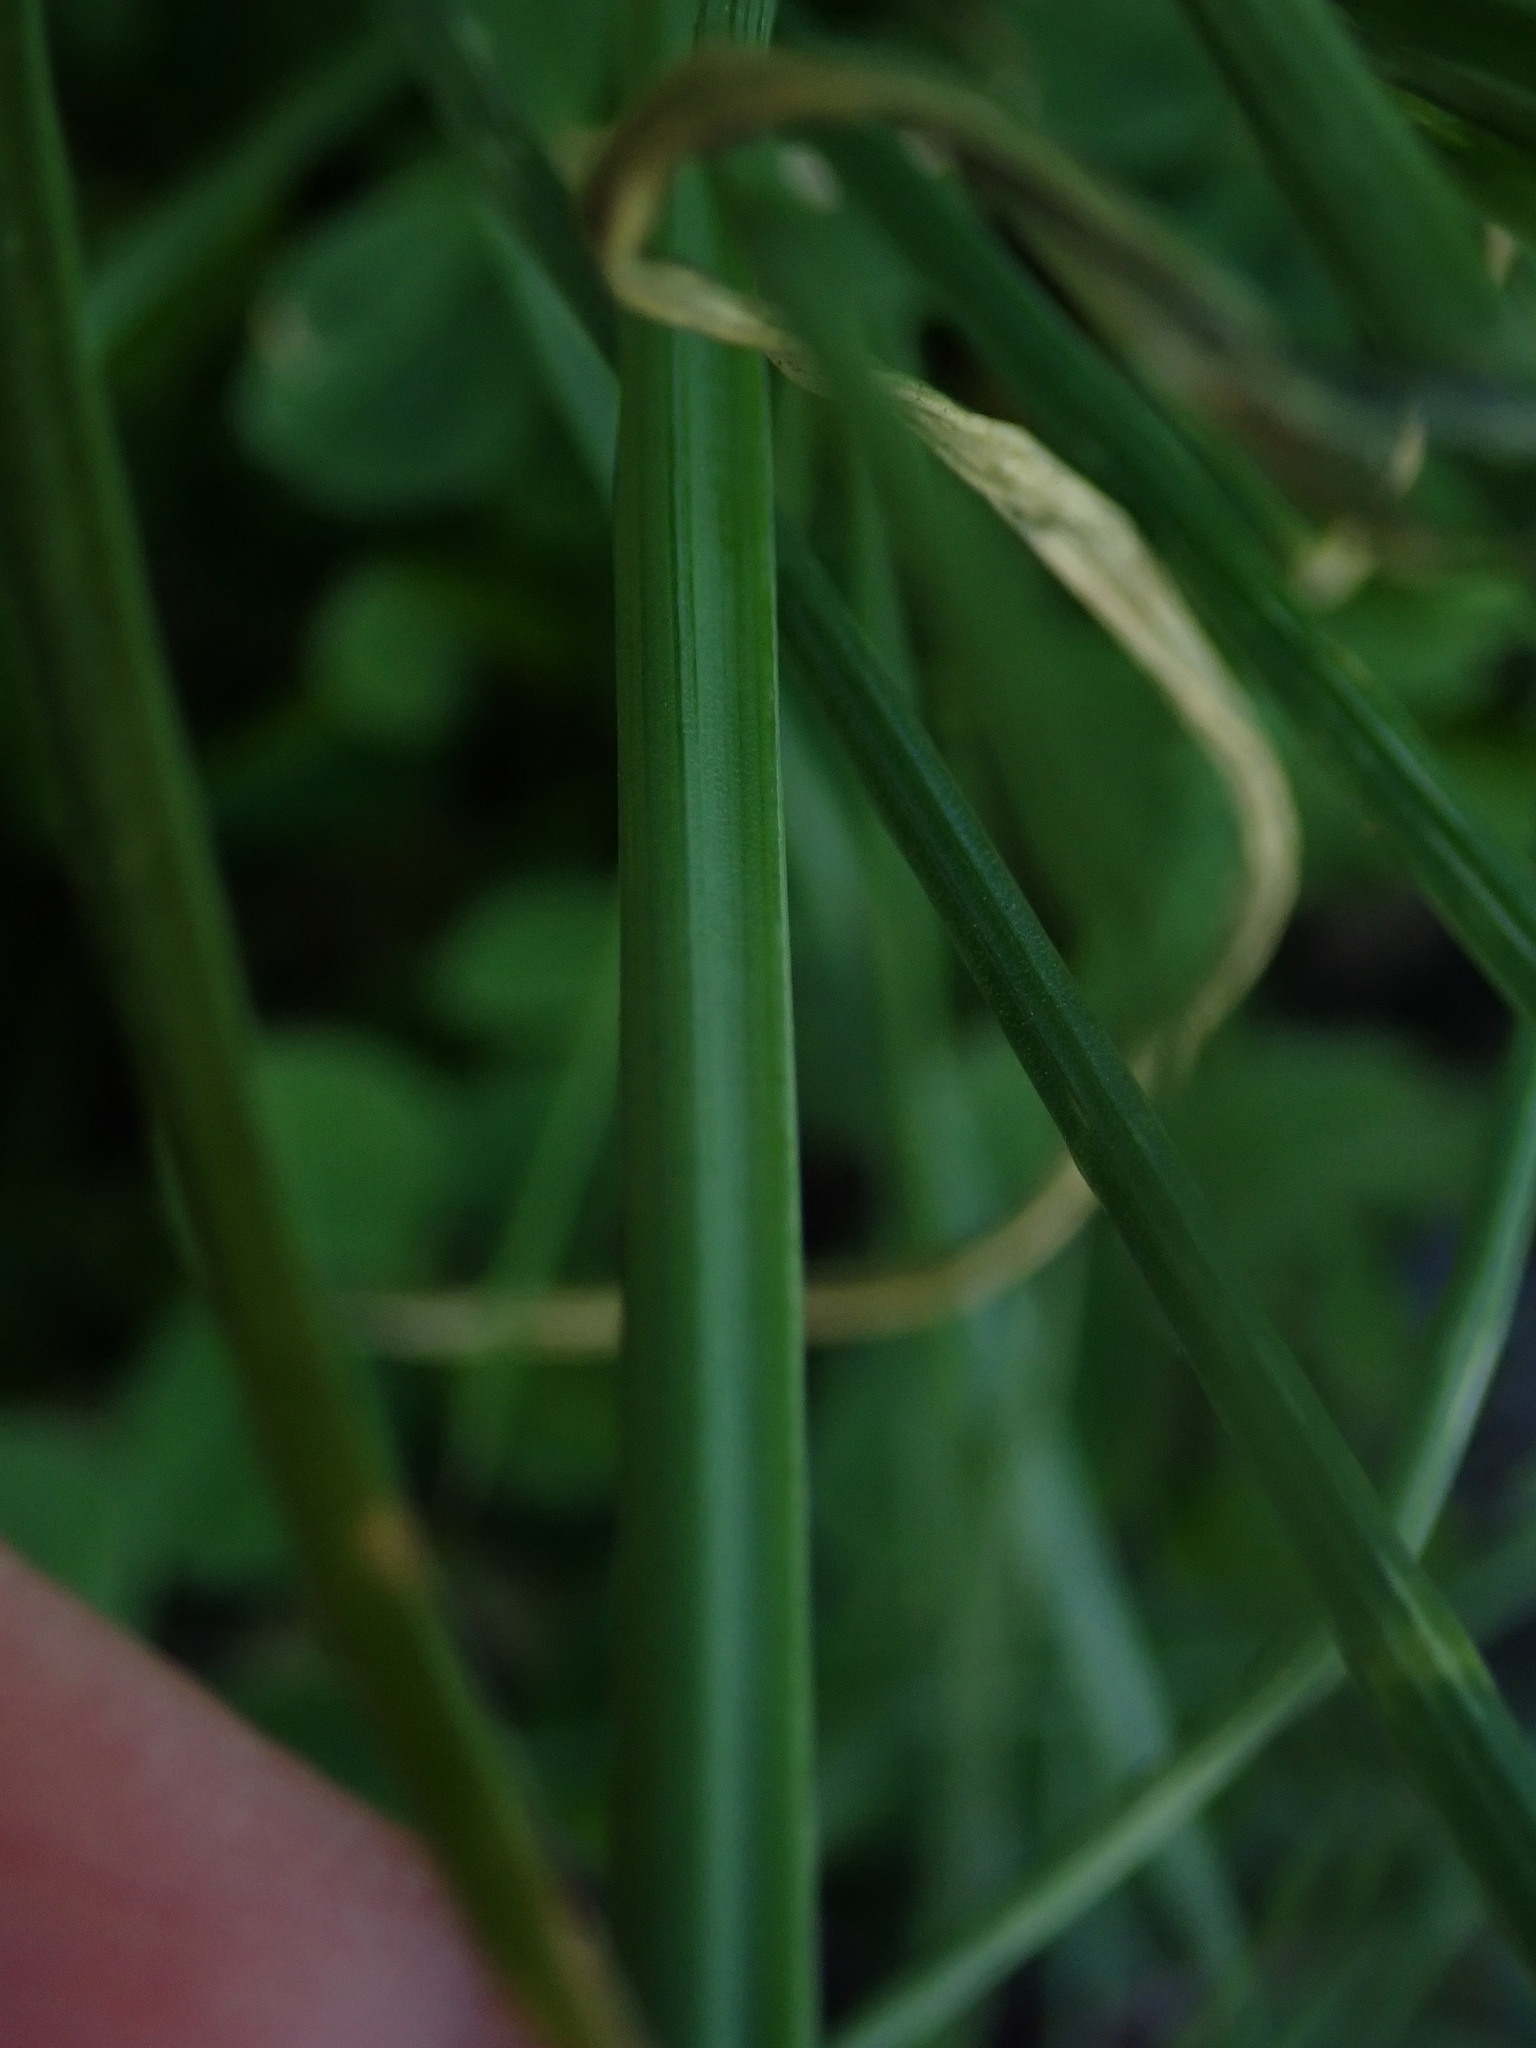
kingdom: Plantae
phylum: Tracheophyta
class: Liliopsida
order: Asparagales
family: Amaryllidaceae
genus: Allium
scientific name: Allium vineale
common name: Crow garlic
